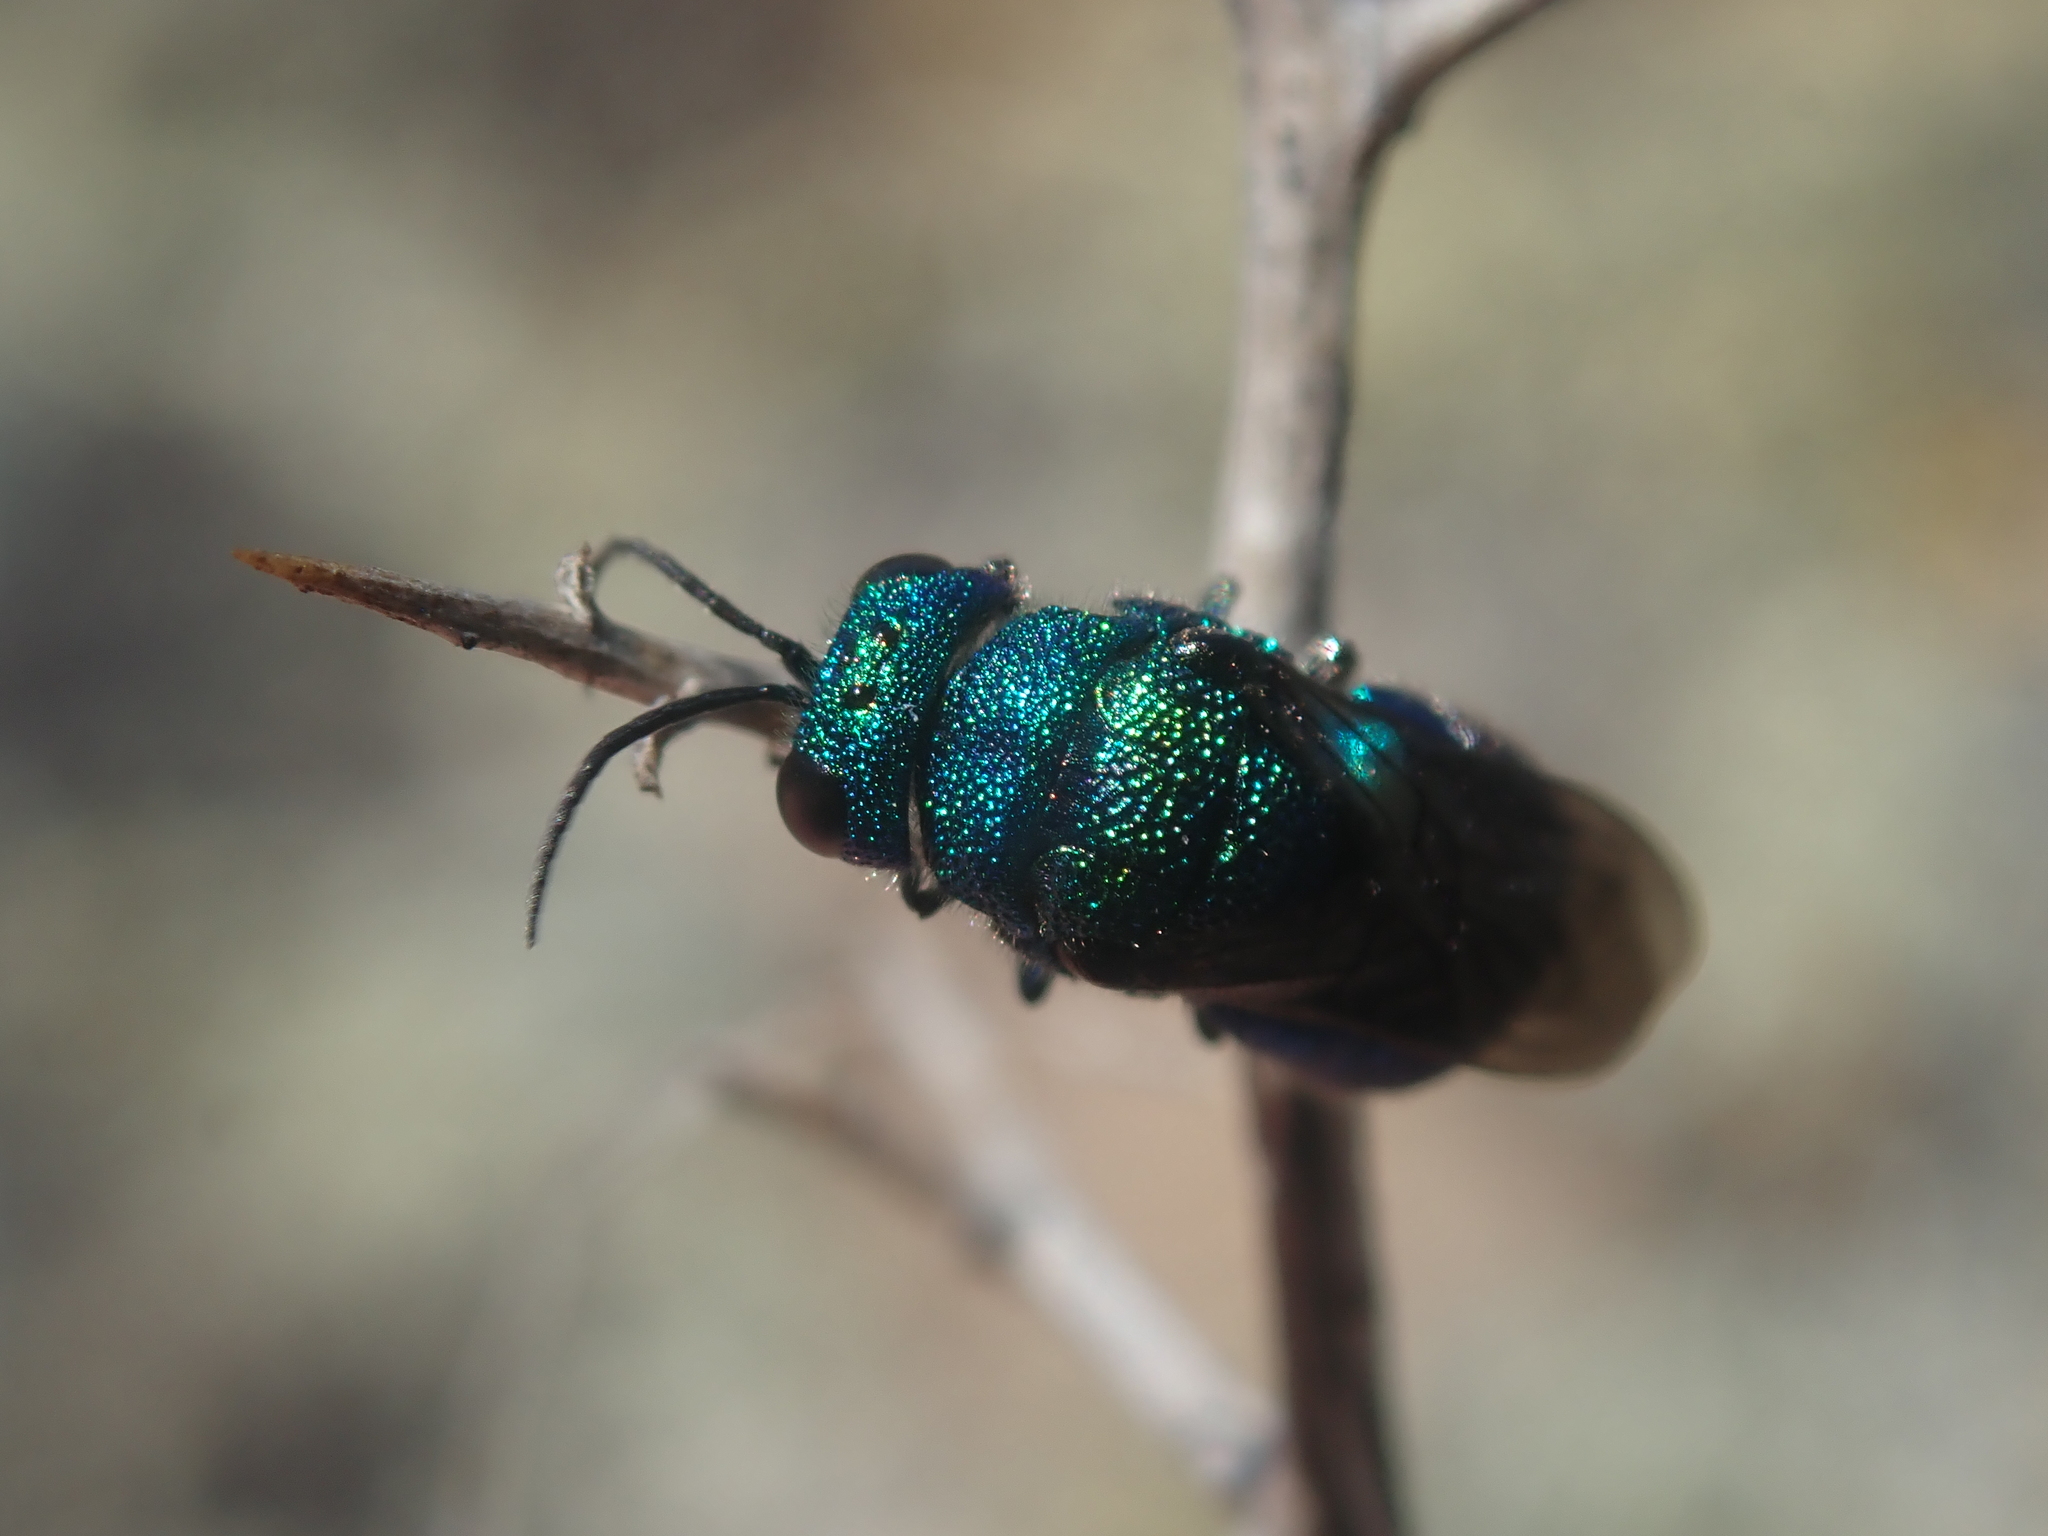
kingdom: Animalia
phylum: Arthropoda
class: Insecta
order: Hymenoptera
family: Chrysididae
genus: Holopyga
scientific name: Holopyga
